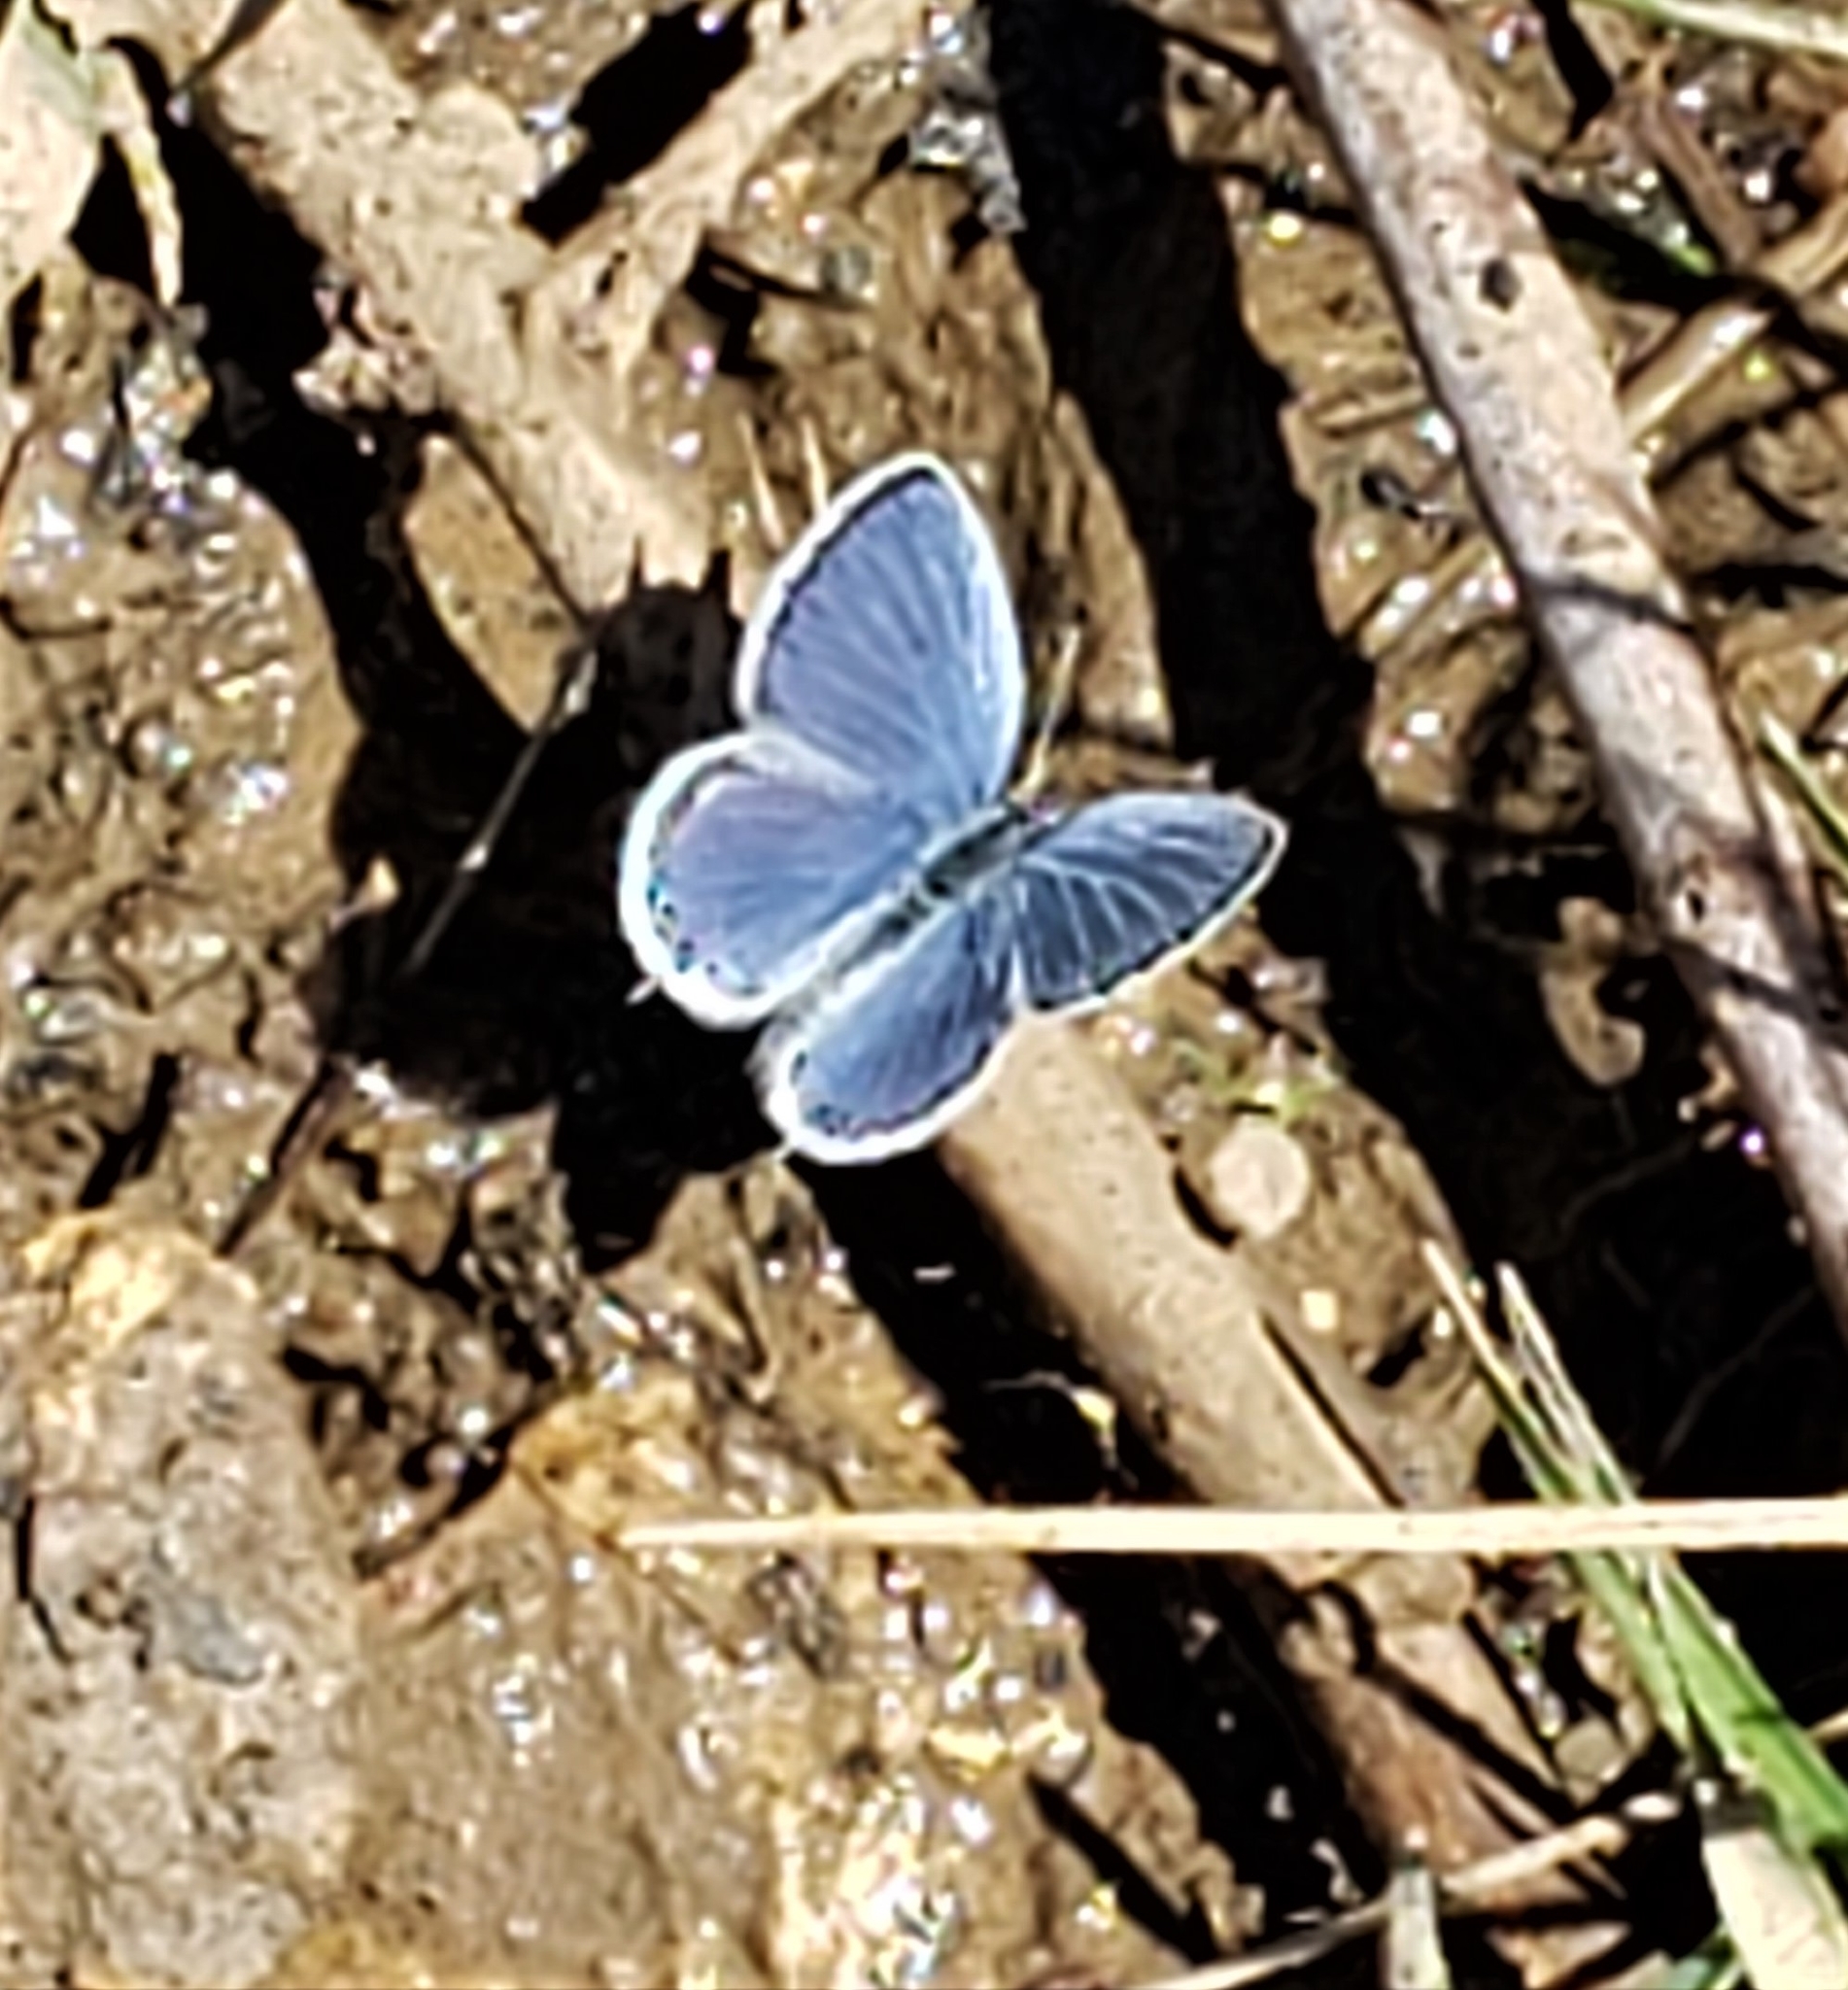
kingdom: Animalia
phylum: Arthropoda
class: Insecta
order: Lepidoptera
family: Lycaenidae
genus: Elkalyce
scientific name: Elkalyce comyntas
